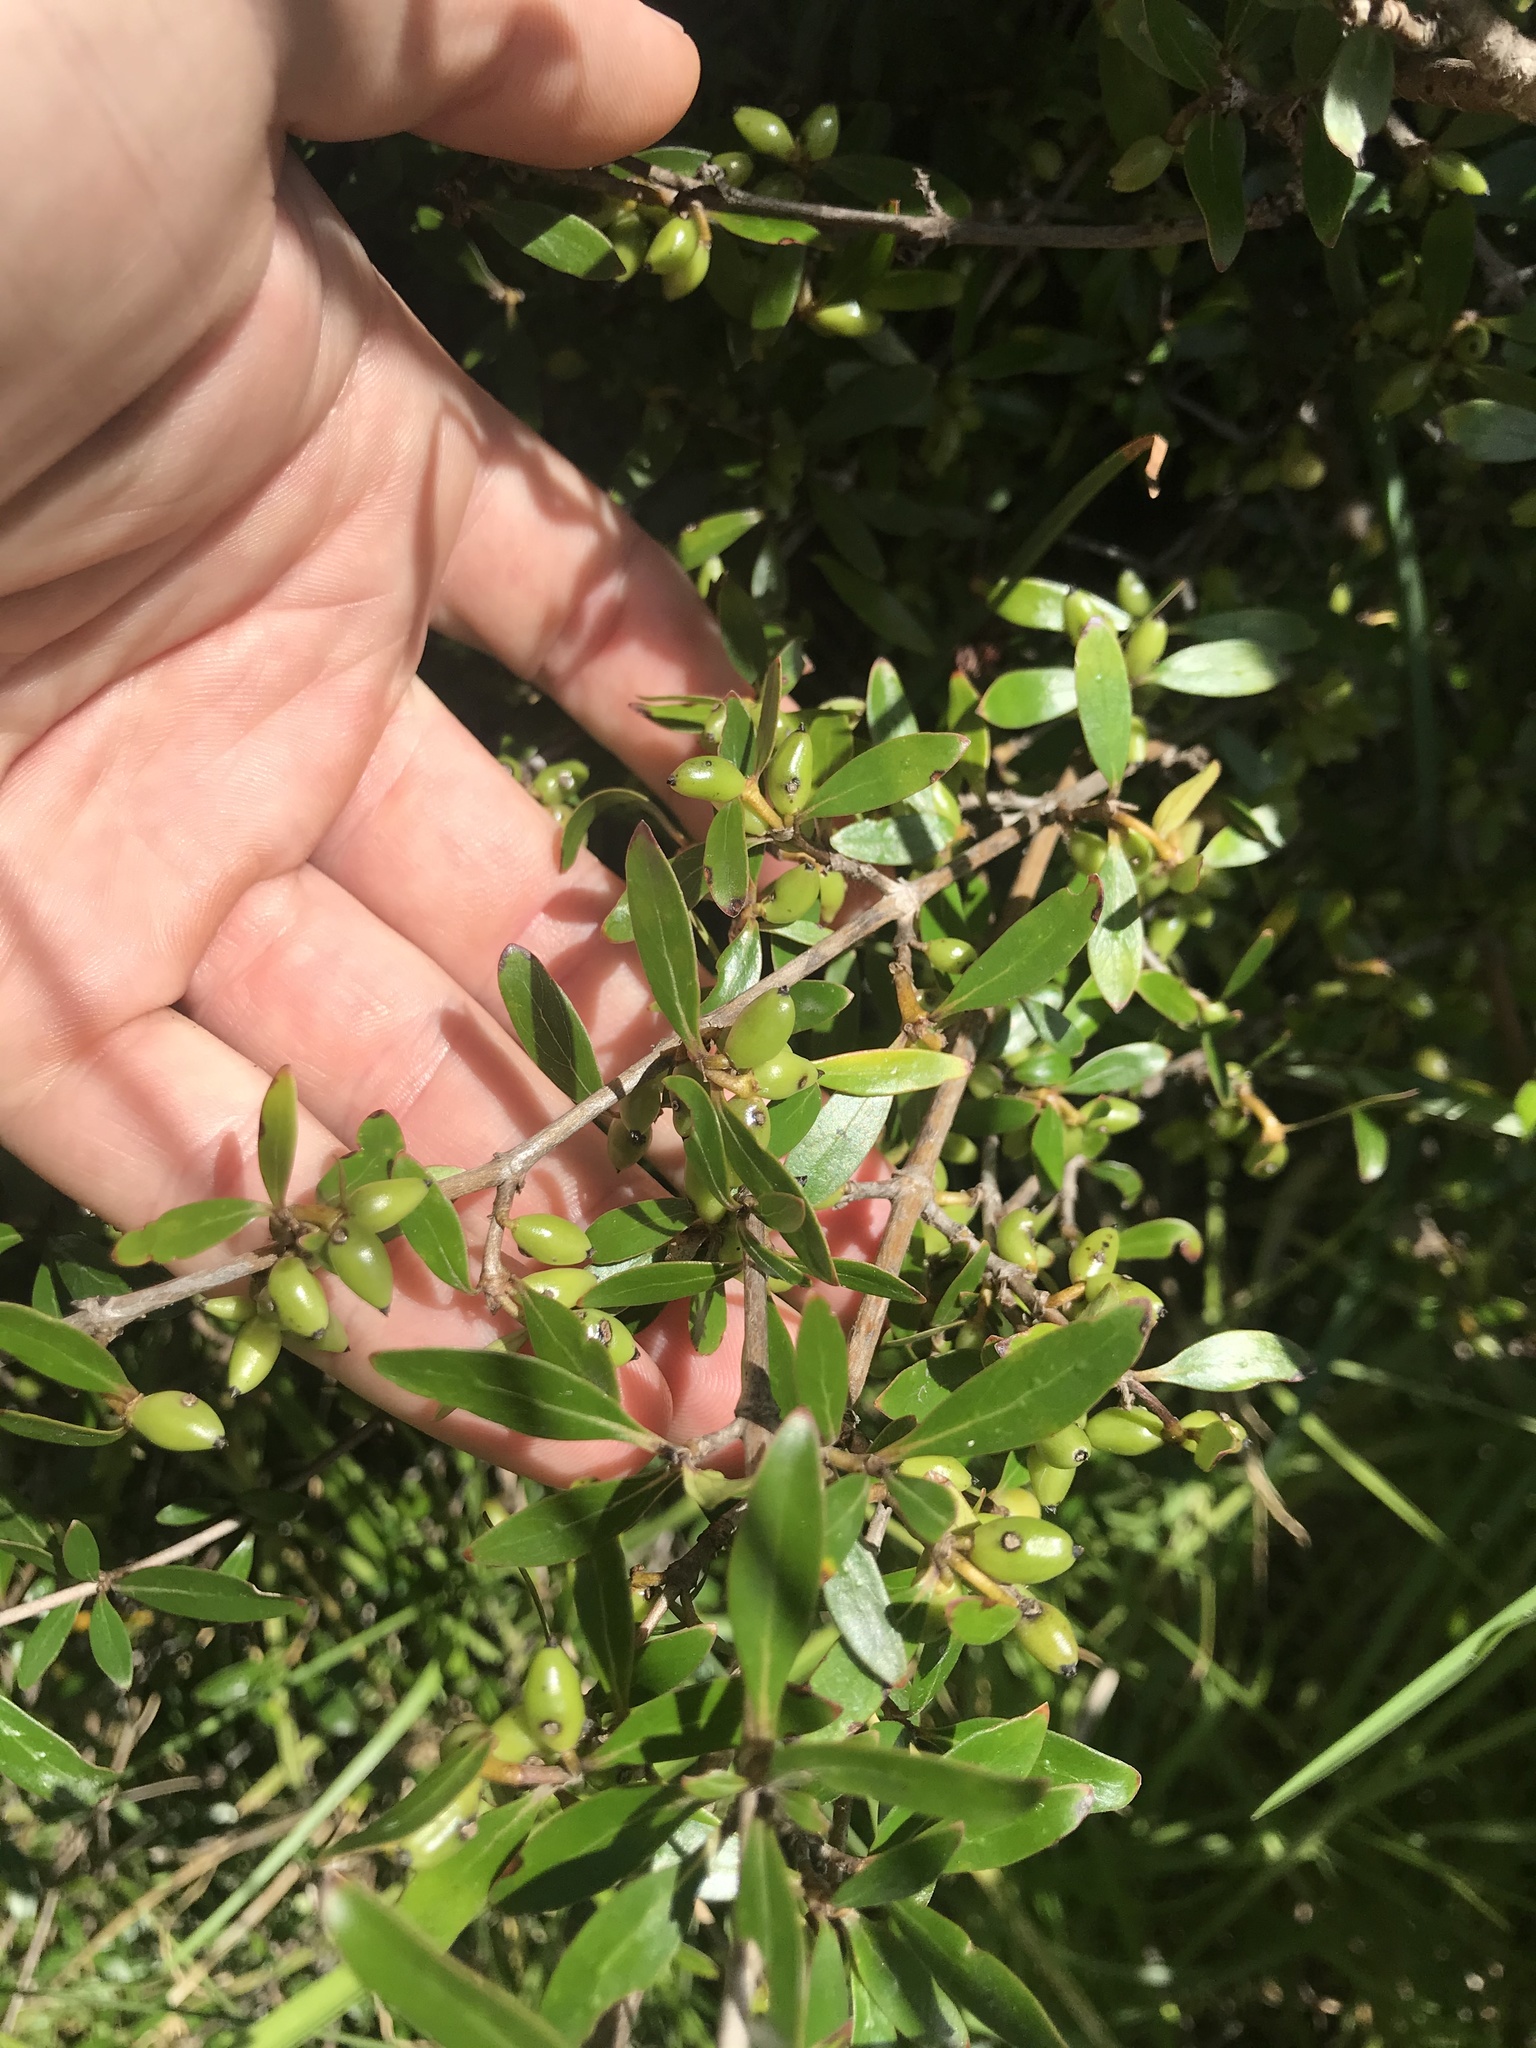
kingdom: Plantae
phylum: Tracheophyta
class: Magnoliopsida
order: Gentianales
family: Rubiaceae
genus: Coprosma
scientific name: Coprosma cunninghamii
